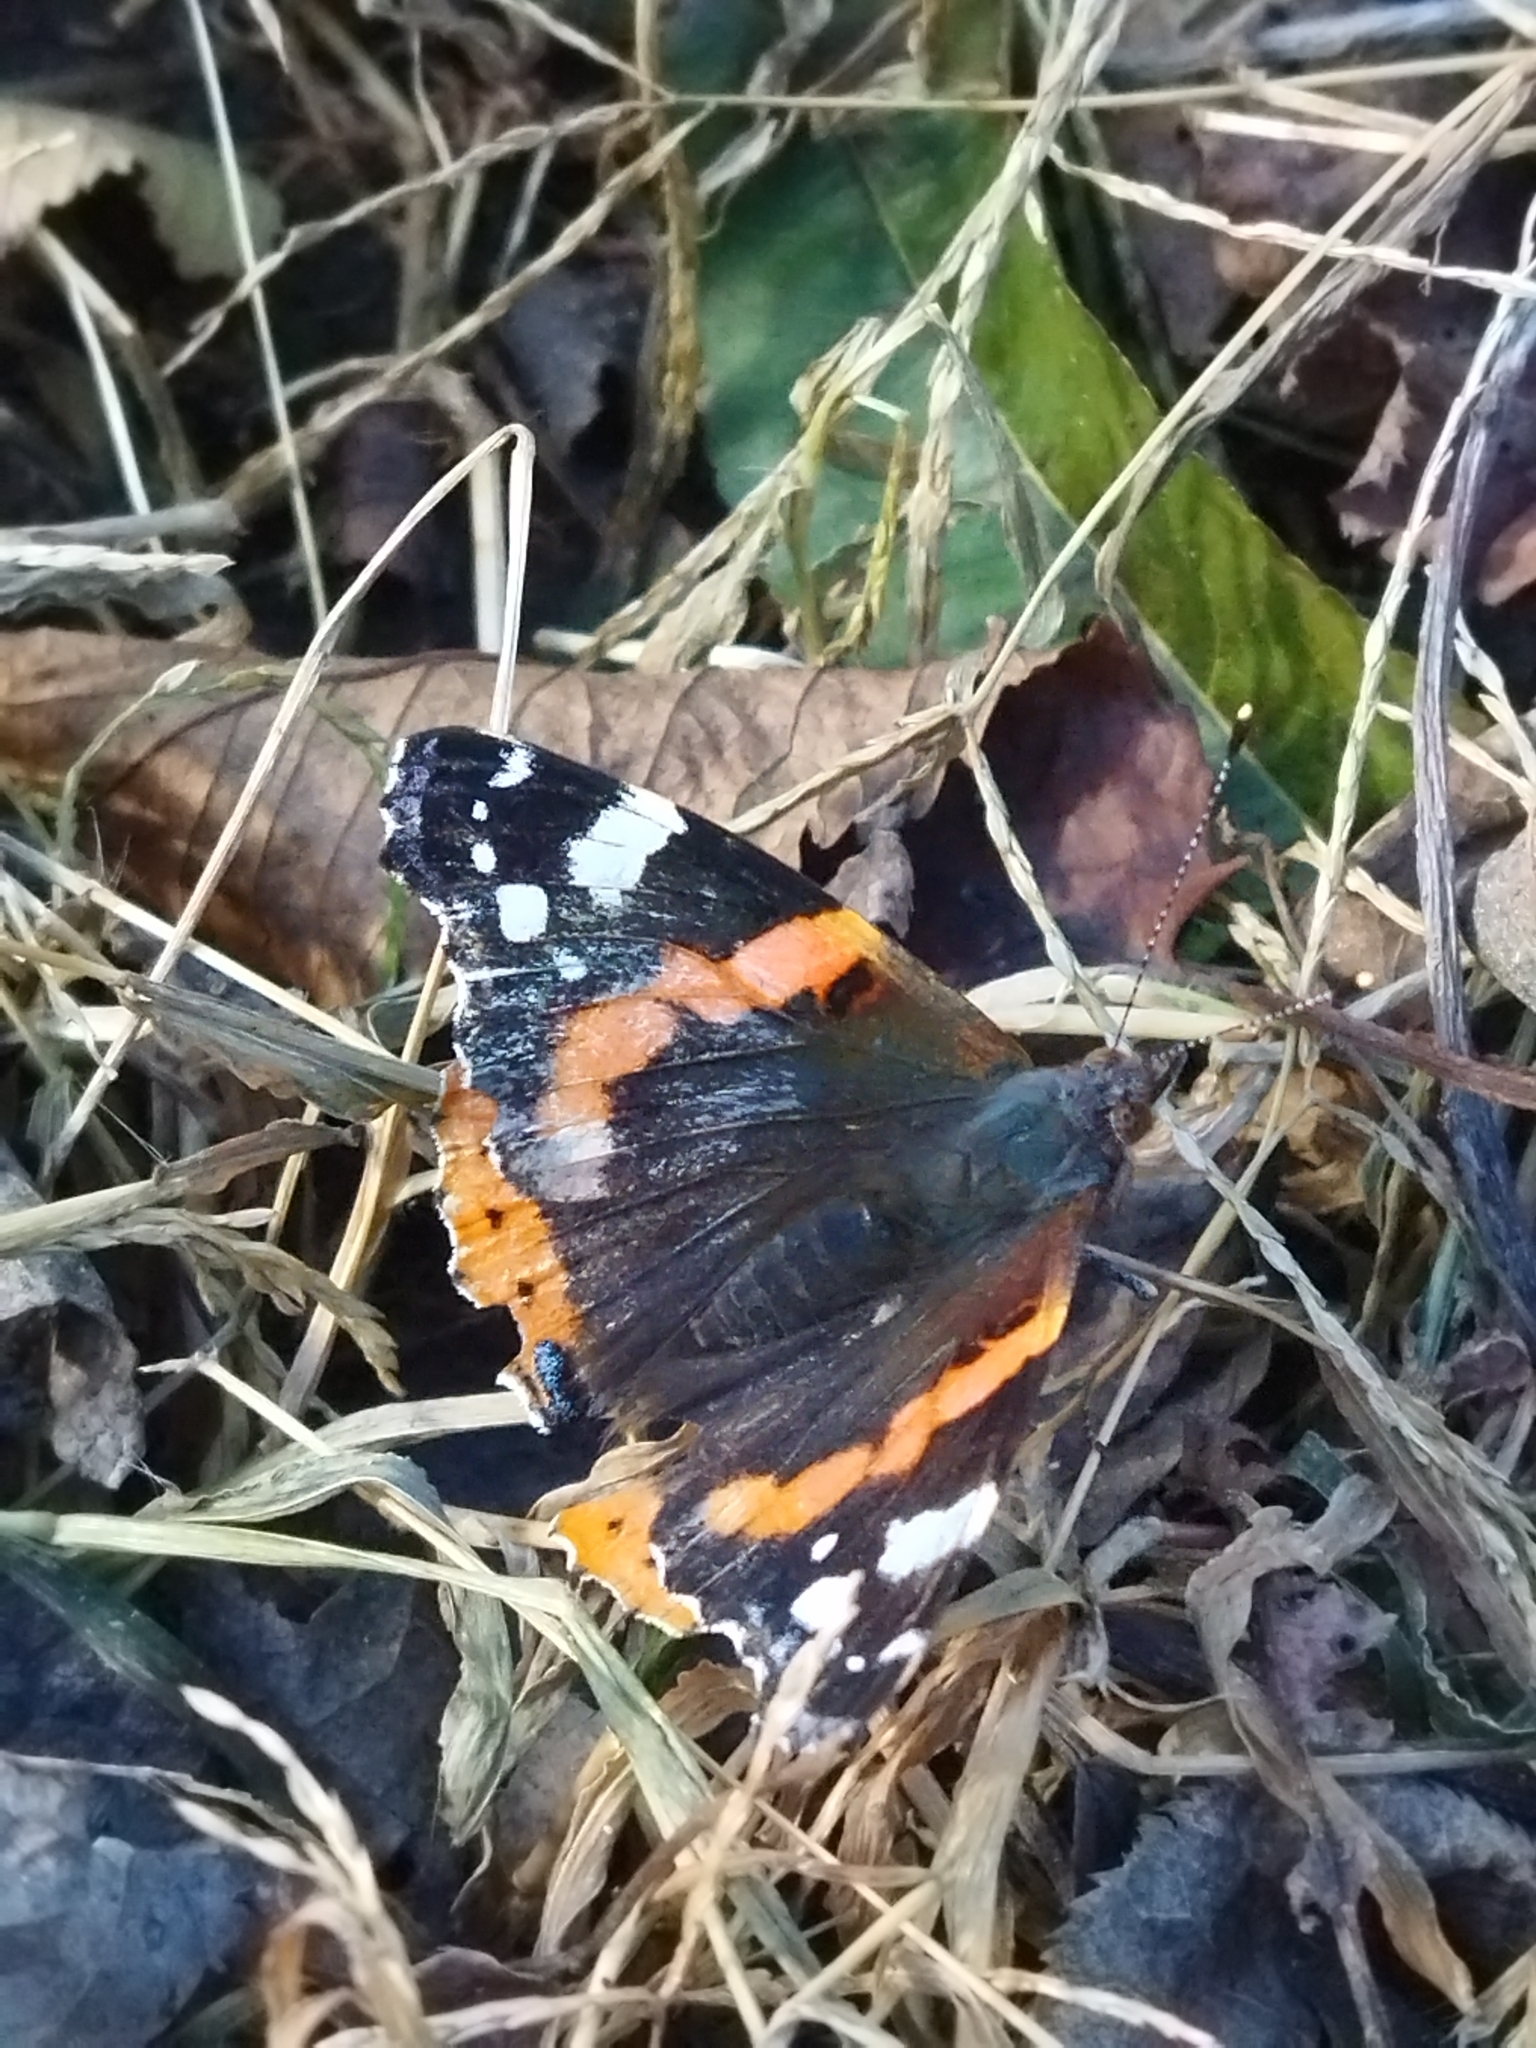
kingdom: Animalia
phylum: Arthropoda
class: Insecta
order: Lepidoptera
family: Nymphalidae
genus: Vanessa
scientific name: Vanessa atalanta
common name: Red admiral
